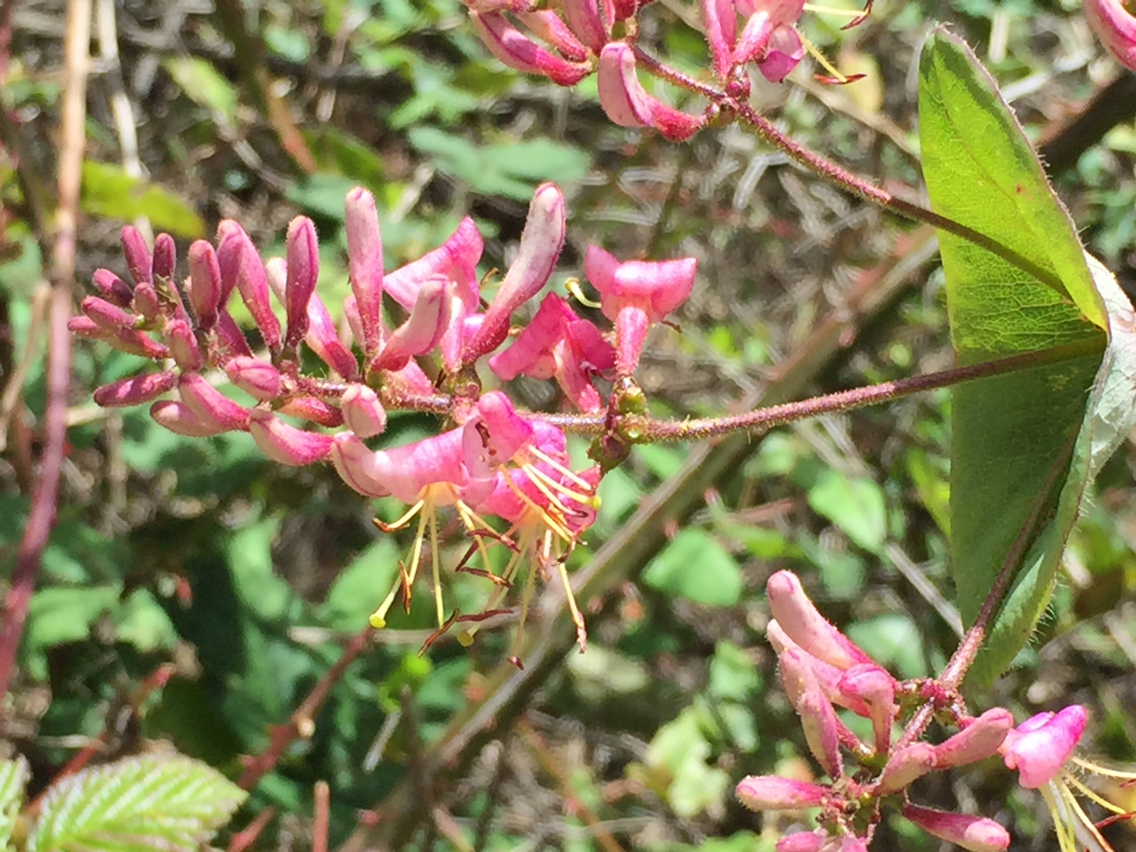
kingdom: Plantae
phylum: Tracheophyta
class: Magnoliopsida
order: Dipsacales
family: Caprifoliaceae
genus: Lonicera
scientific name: Lonicera hispidula
